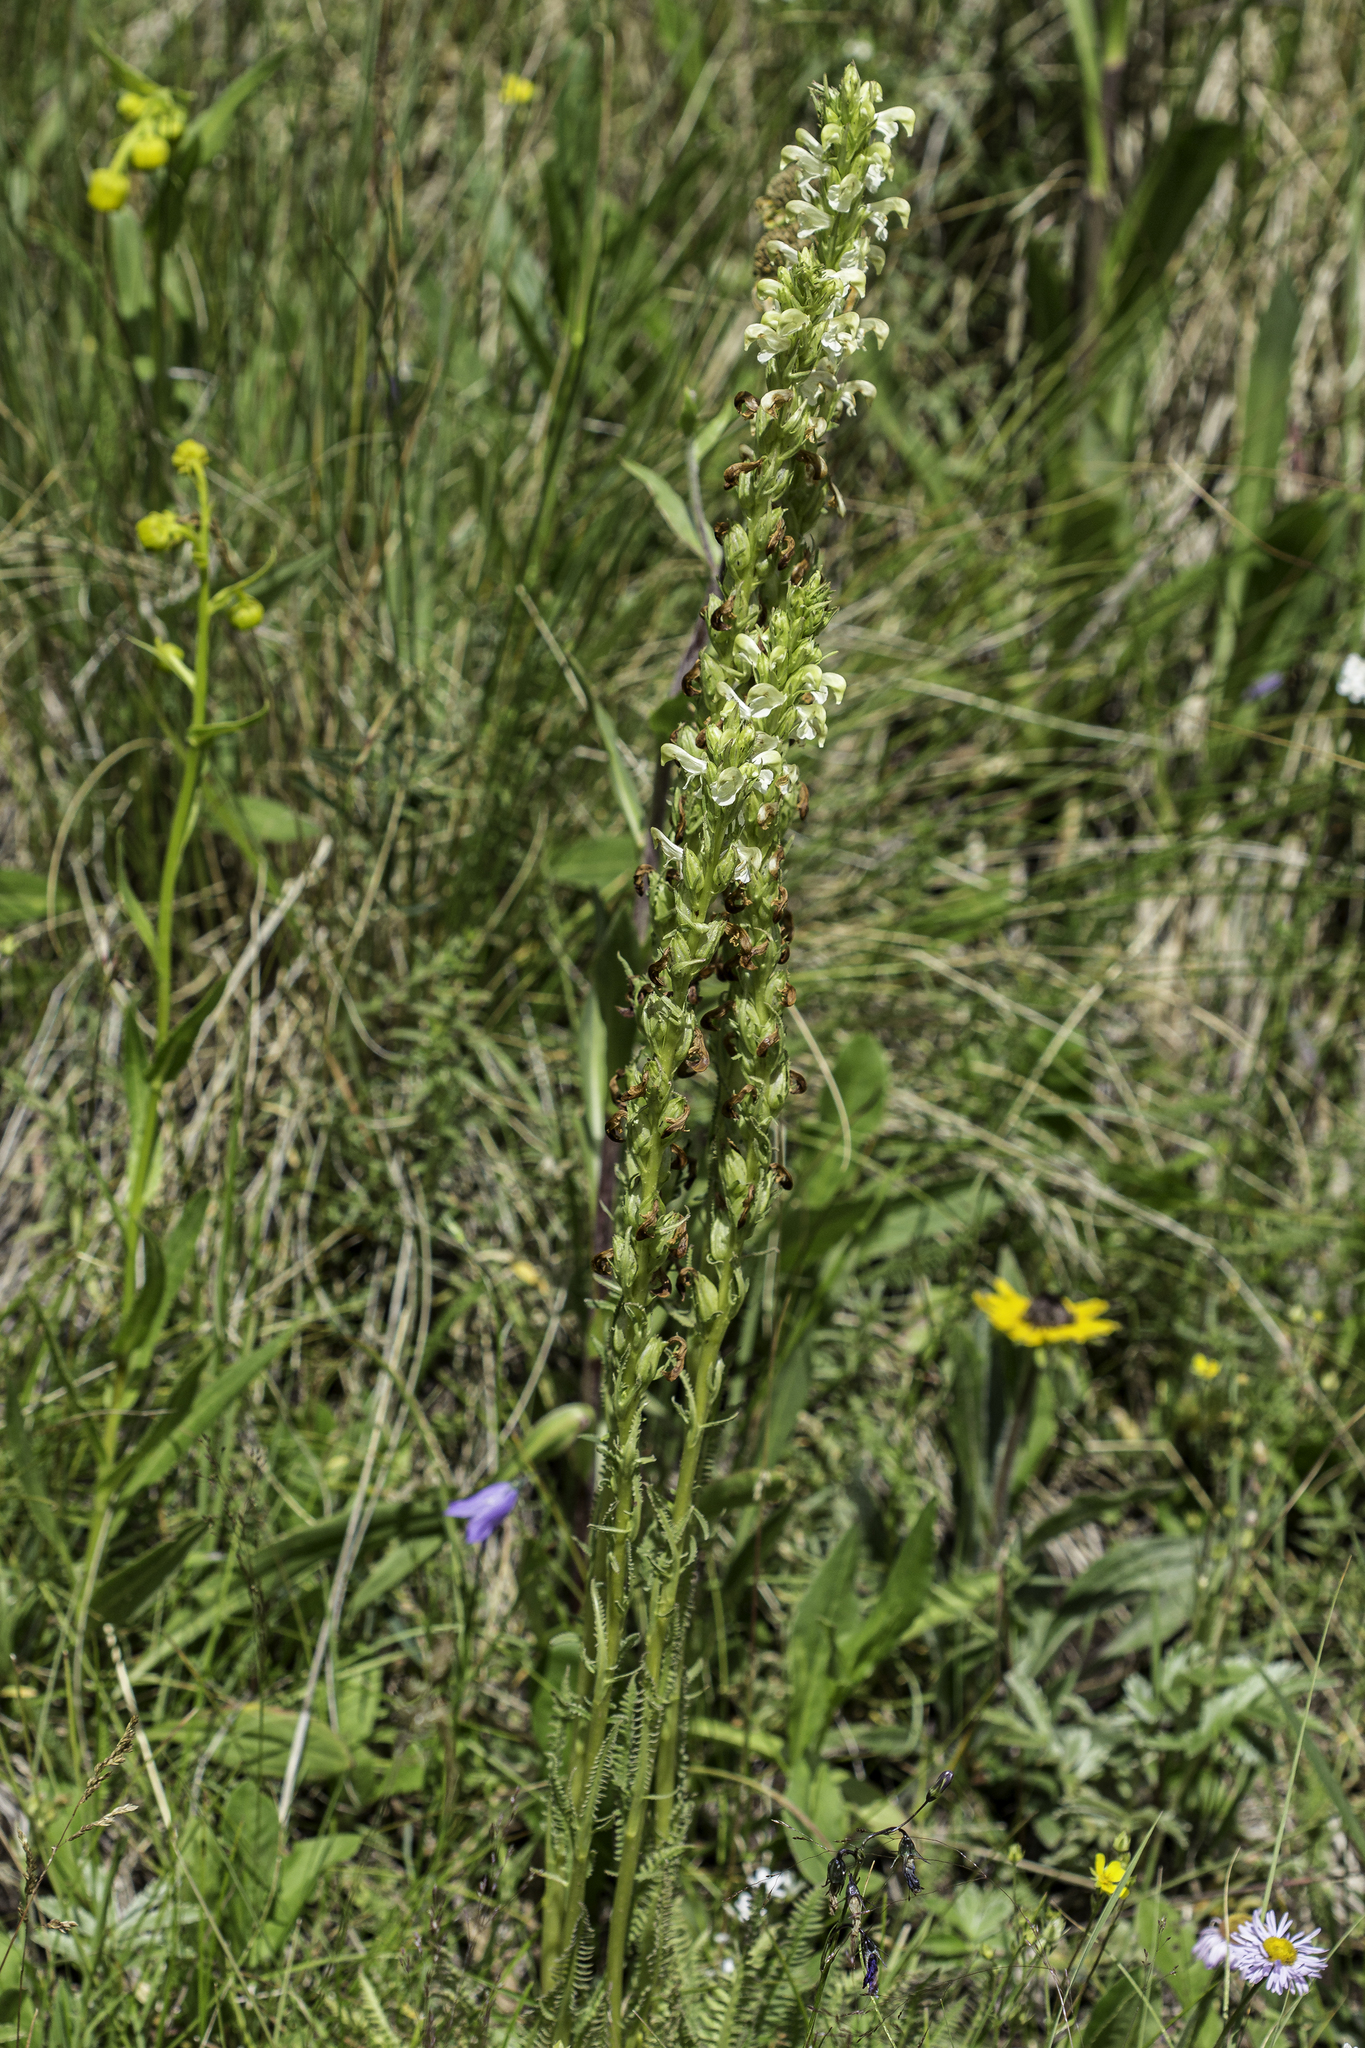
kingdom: Plantae
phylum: Tracheophyta
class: Magnoliopsida
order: Lamiales
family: Orobanchaceae
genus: Pedicularis
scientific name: Pedicularis parryi
